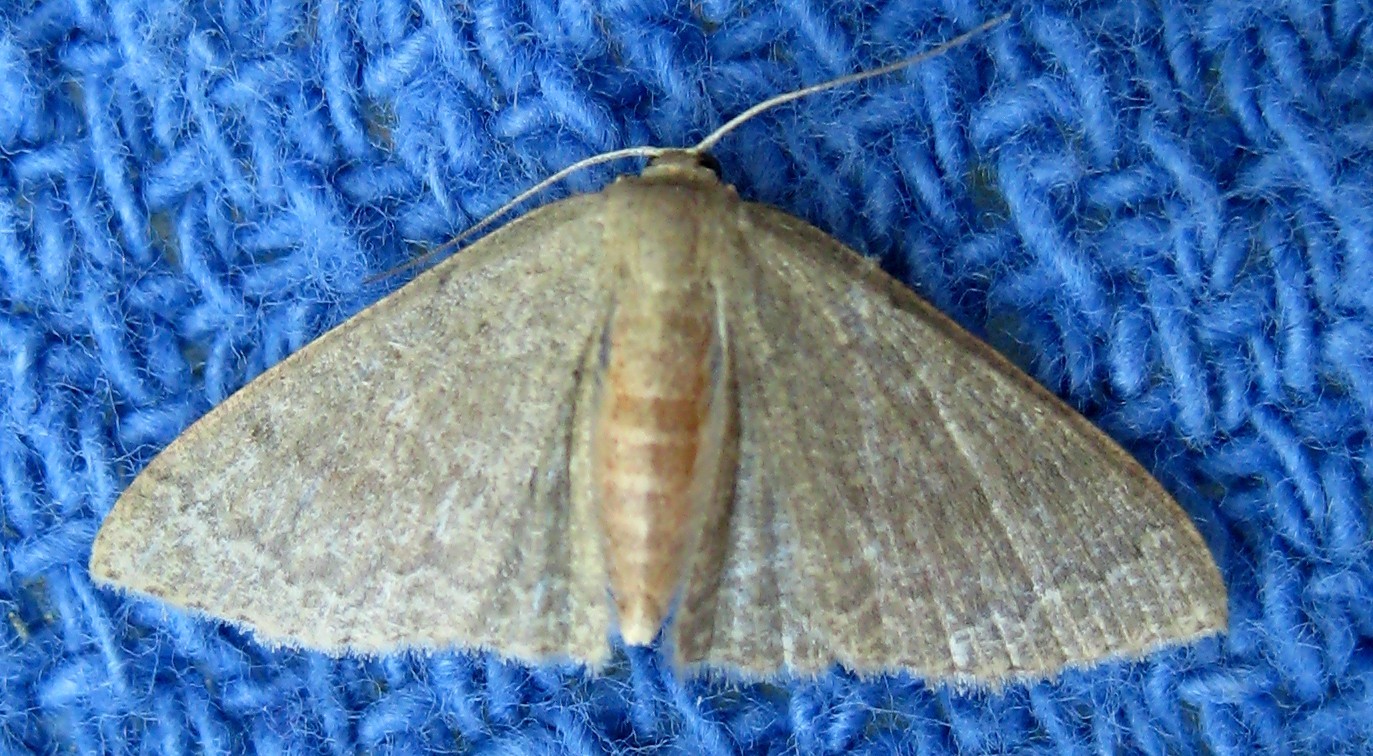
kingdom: Animalia
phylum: Arthropoda
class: Insecta
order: Lepidoptera
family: Geometridae
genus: Pleuroprucha
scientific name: Pleuroprucha insulsaria
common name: Common tan wave
